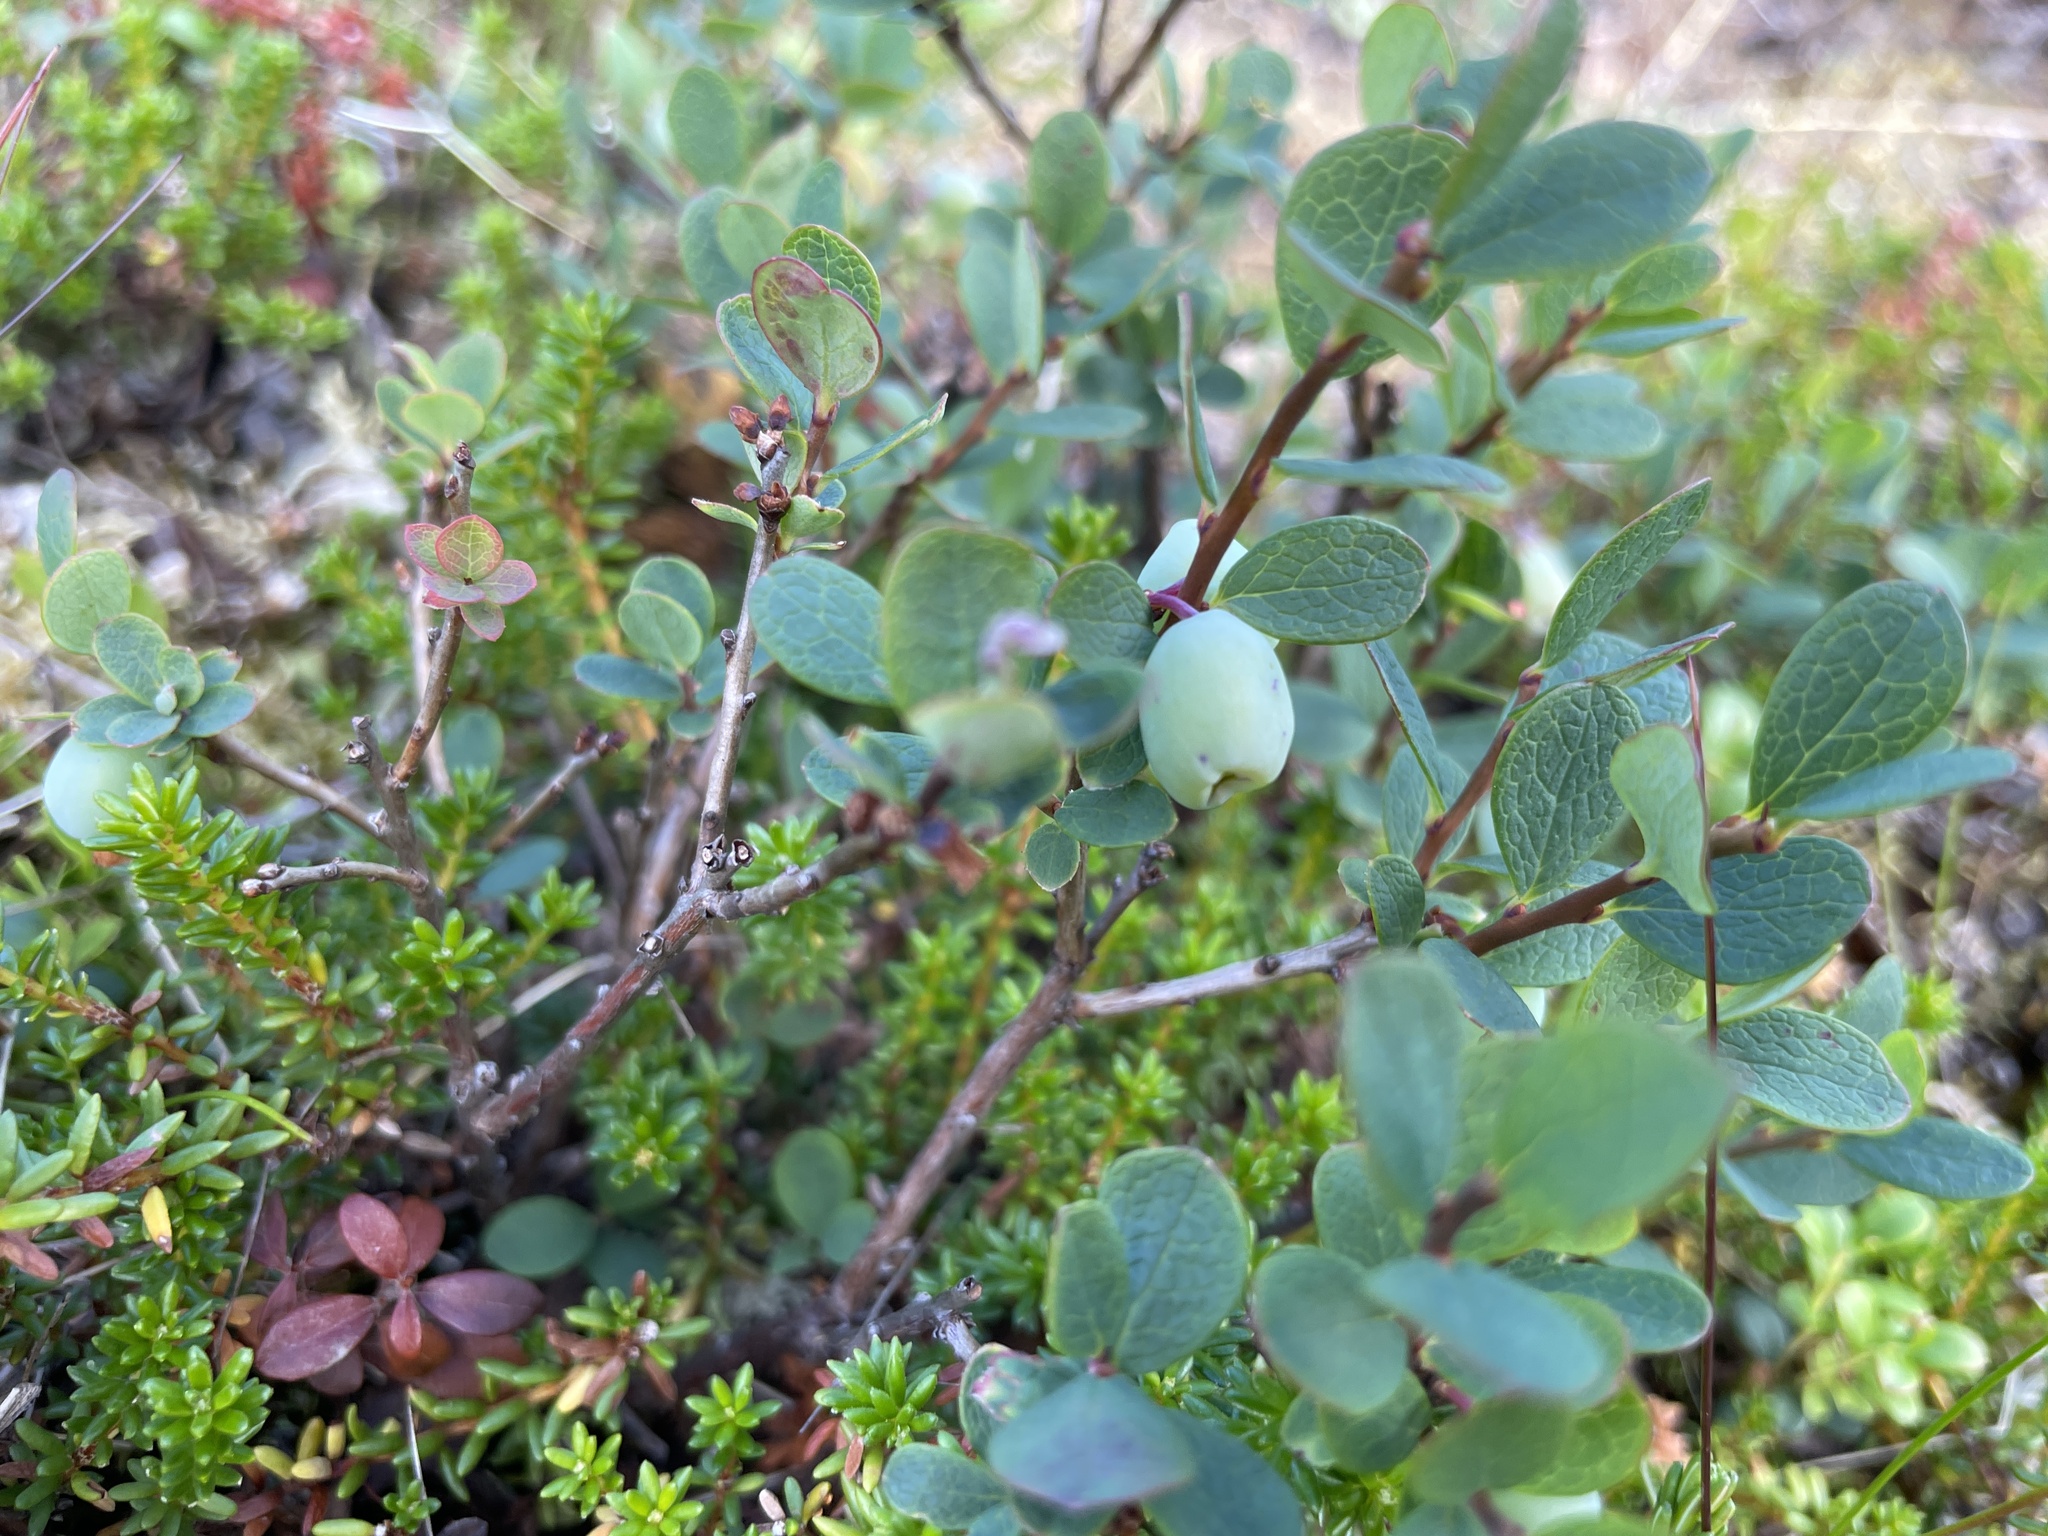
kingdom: Plantae
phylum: Tracheophyta
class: Magnoliopsida
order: Ericales
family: Ericaceae
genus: Vaccinium
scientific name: Vaccinium uliginosum
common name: Bog bilberry
